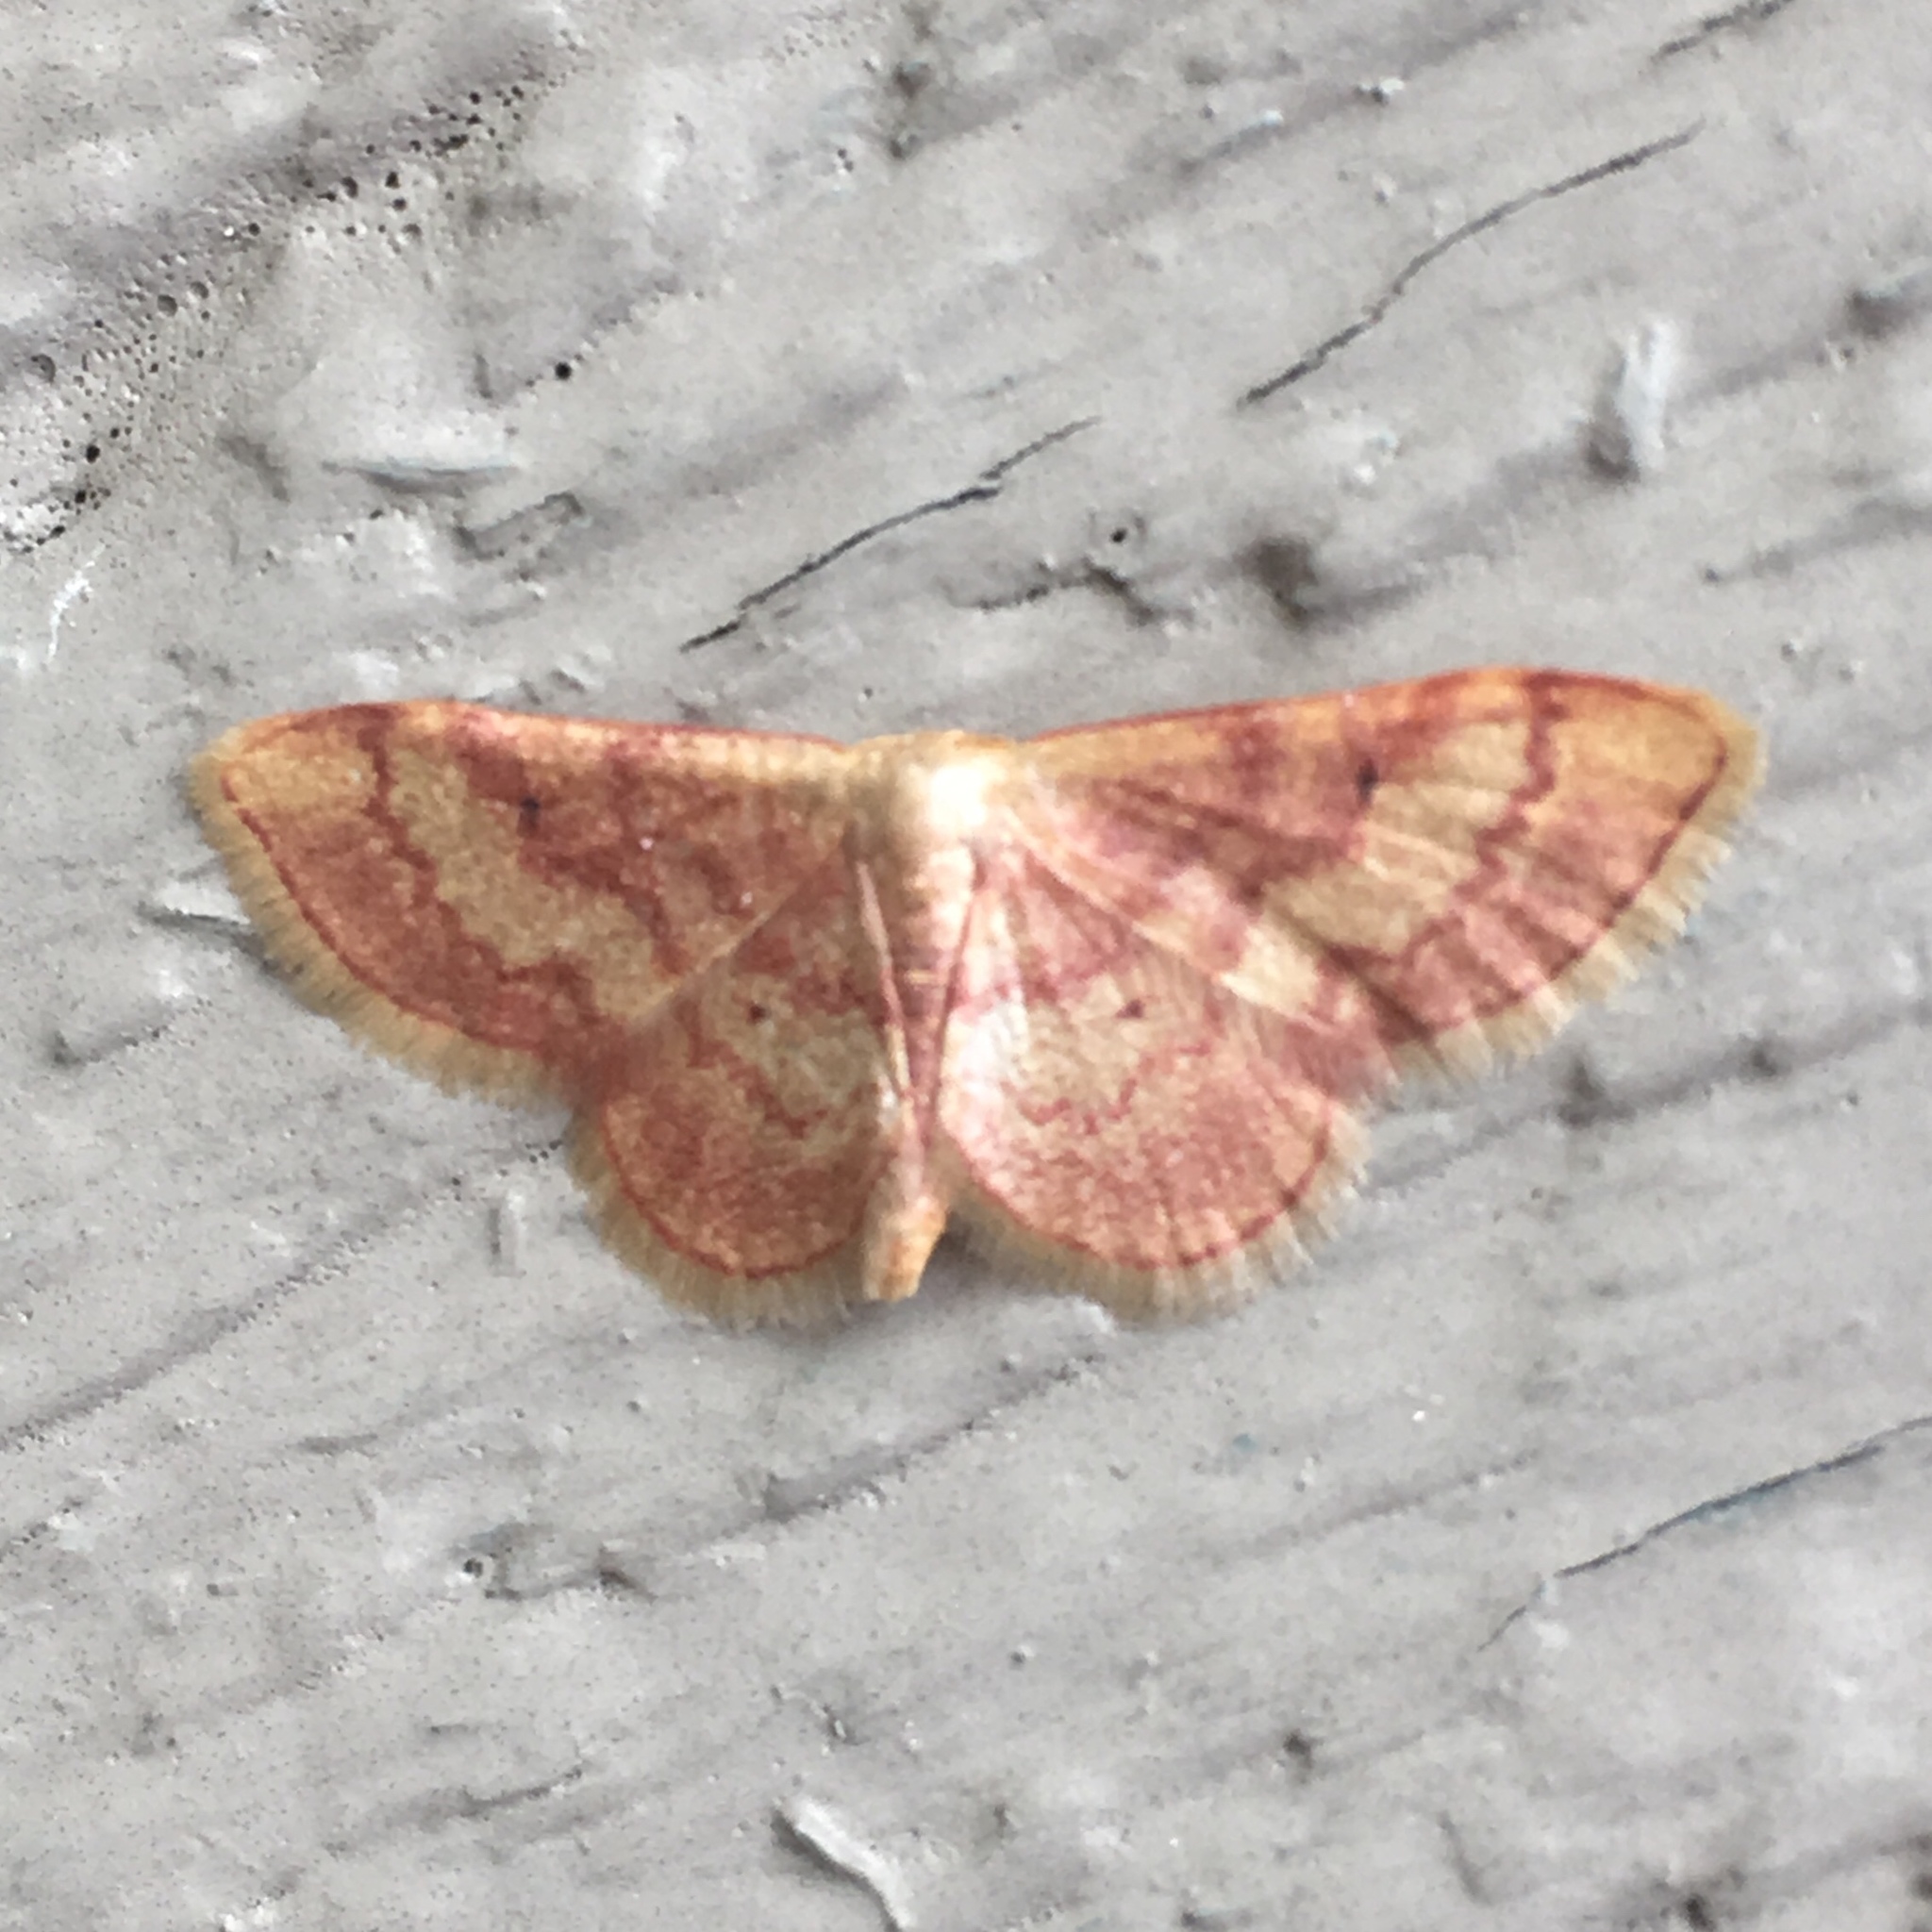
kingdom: Animalia
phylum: Arthropoda
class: Insecta
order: Lepidoptera
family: Geometridae
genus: Idaea
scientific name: Idaea demissaria
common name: Red-bordered wave
